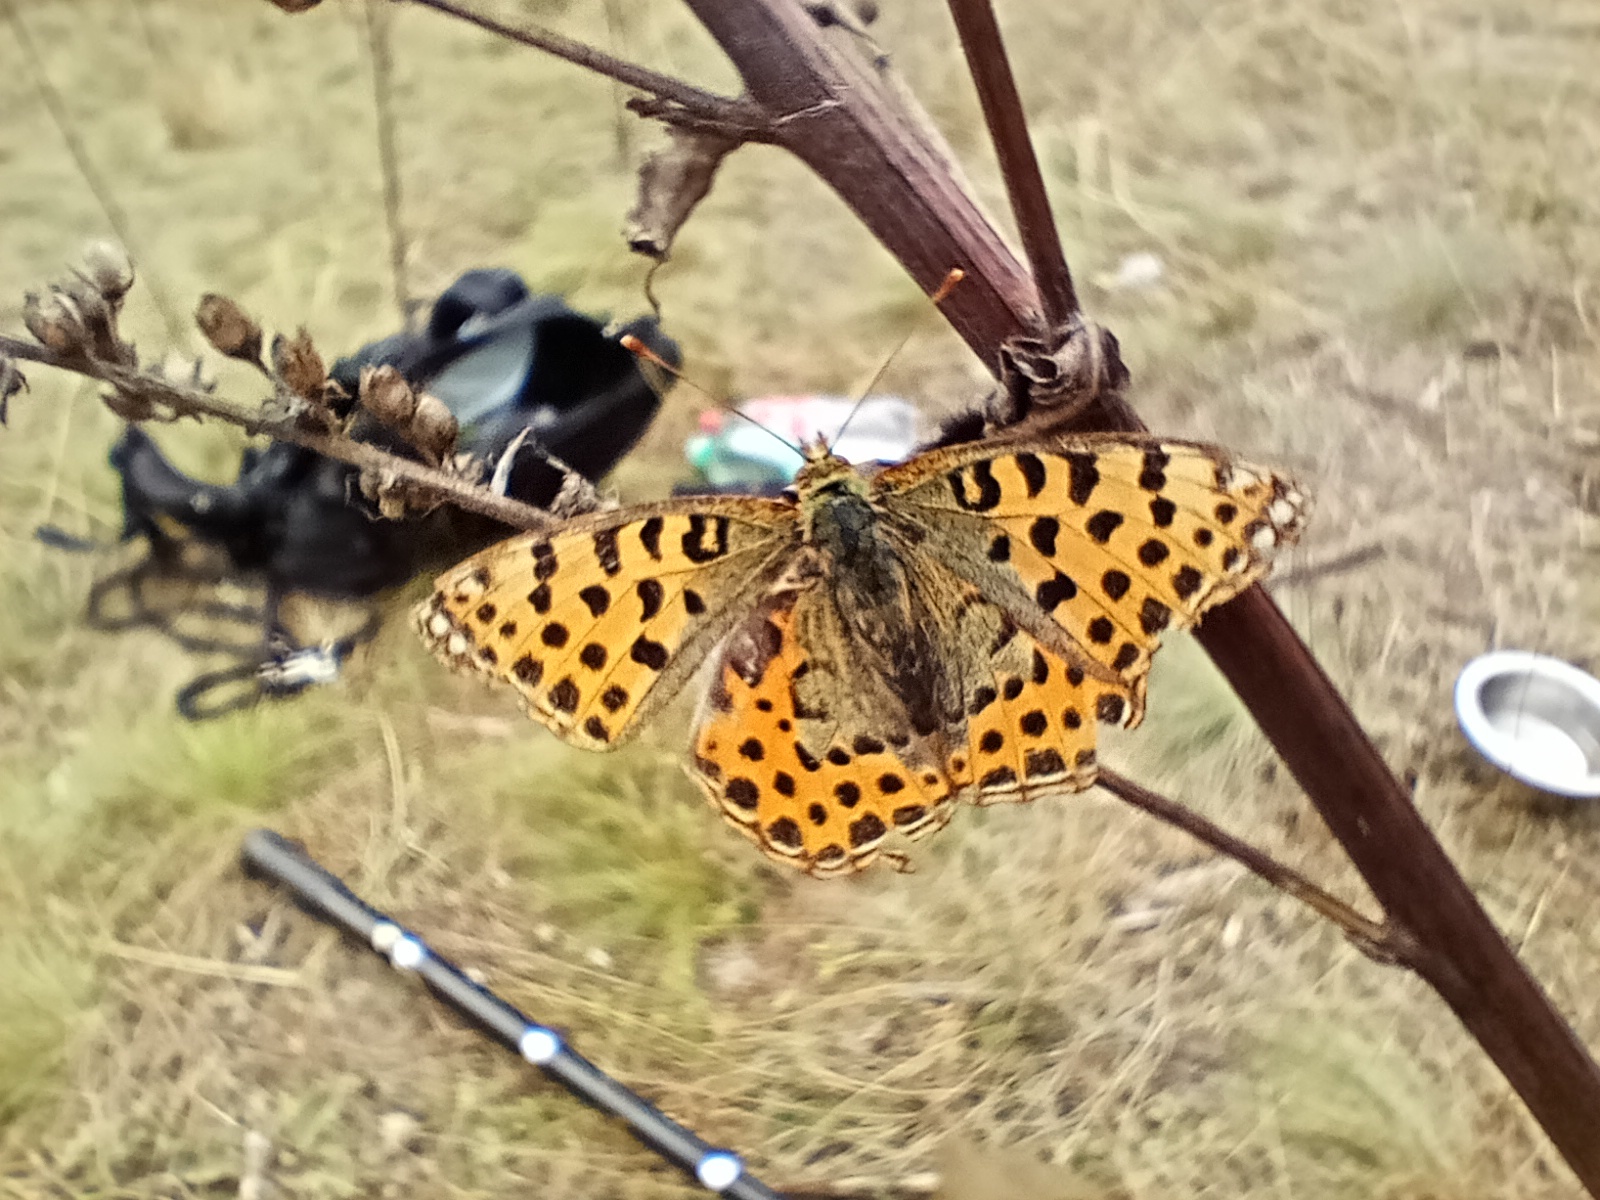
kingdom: Animalia
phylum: Arthropoda
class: Insecta
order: Lepidoptera
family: Nymphalidae
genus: Issoria
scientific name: Issoria lathonia
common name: Queen of spain fritillary
